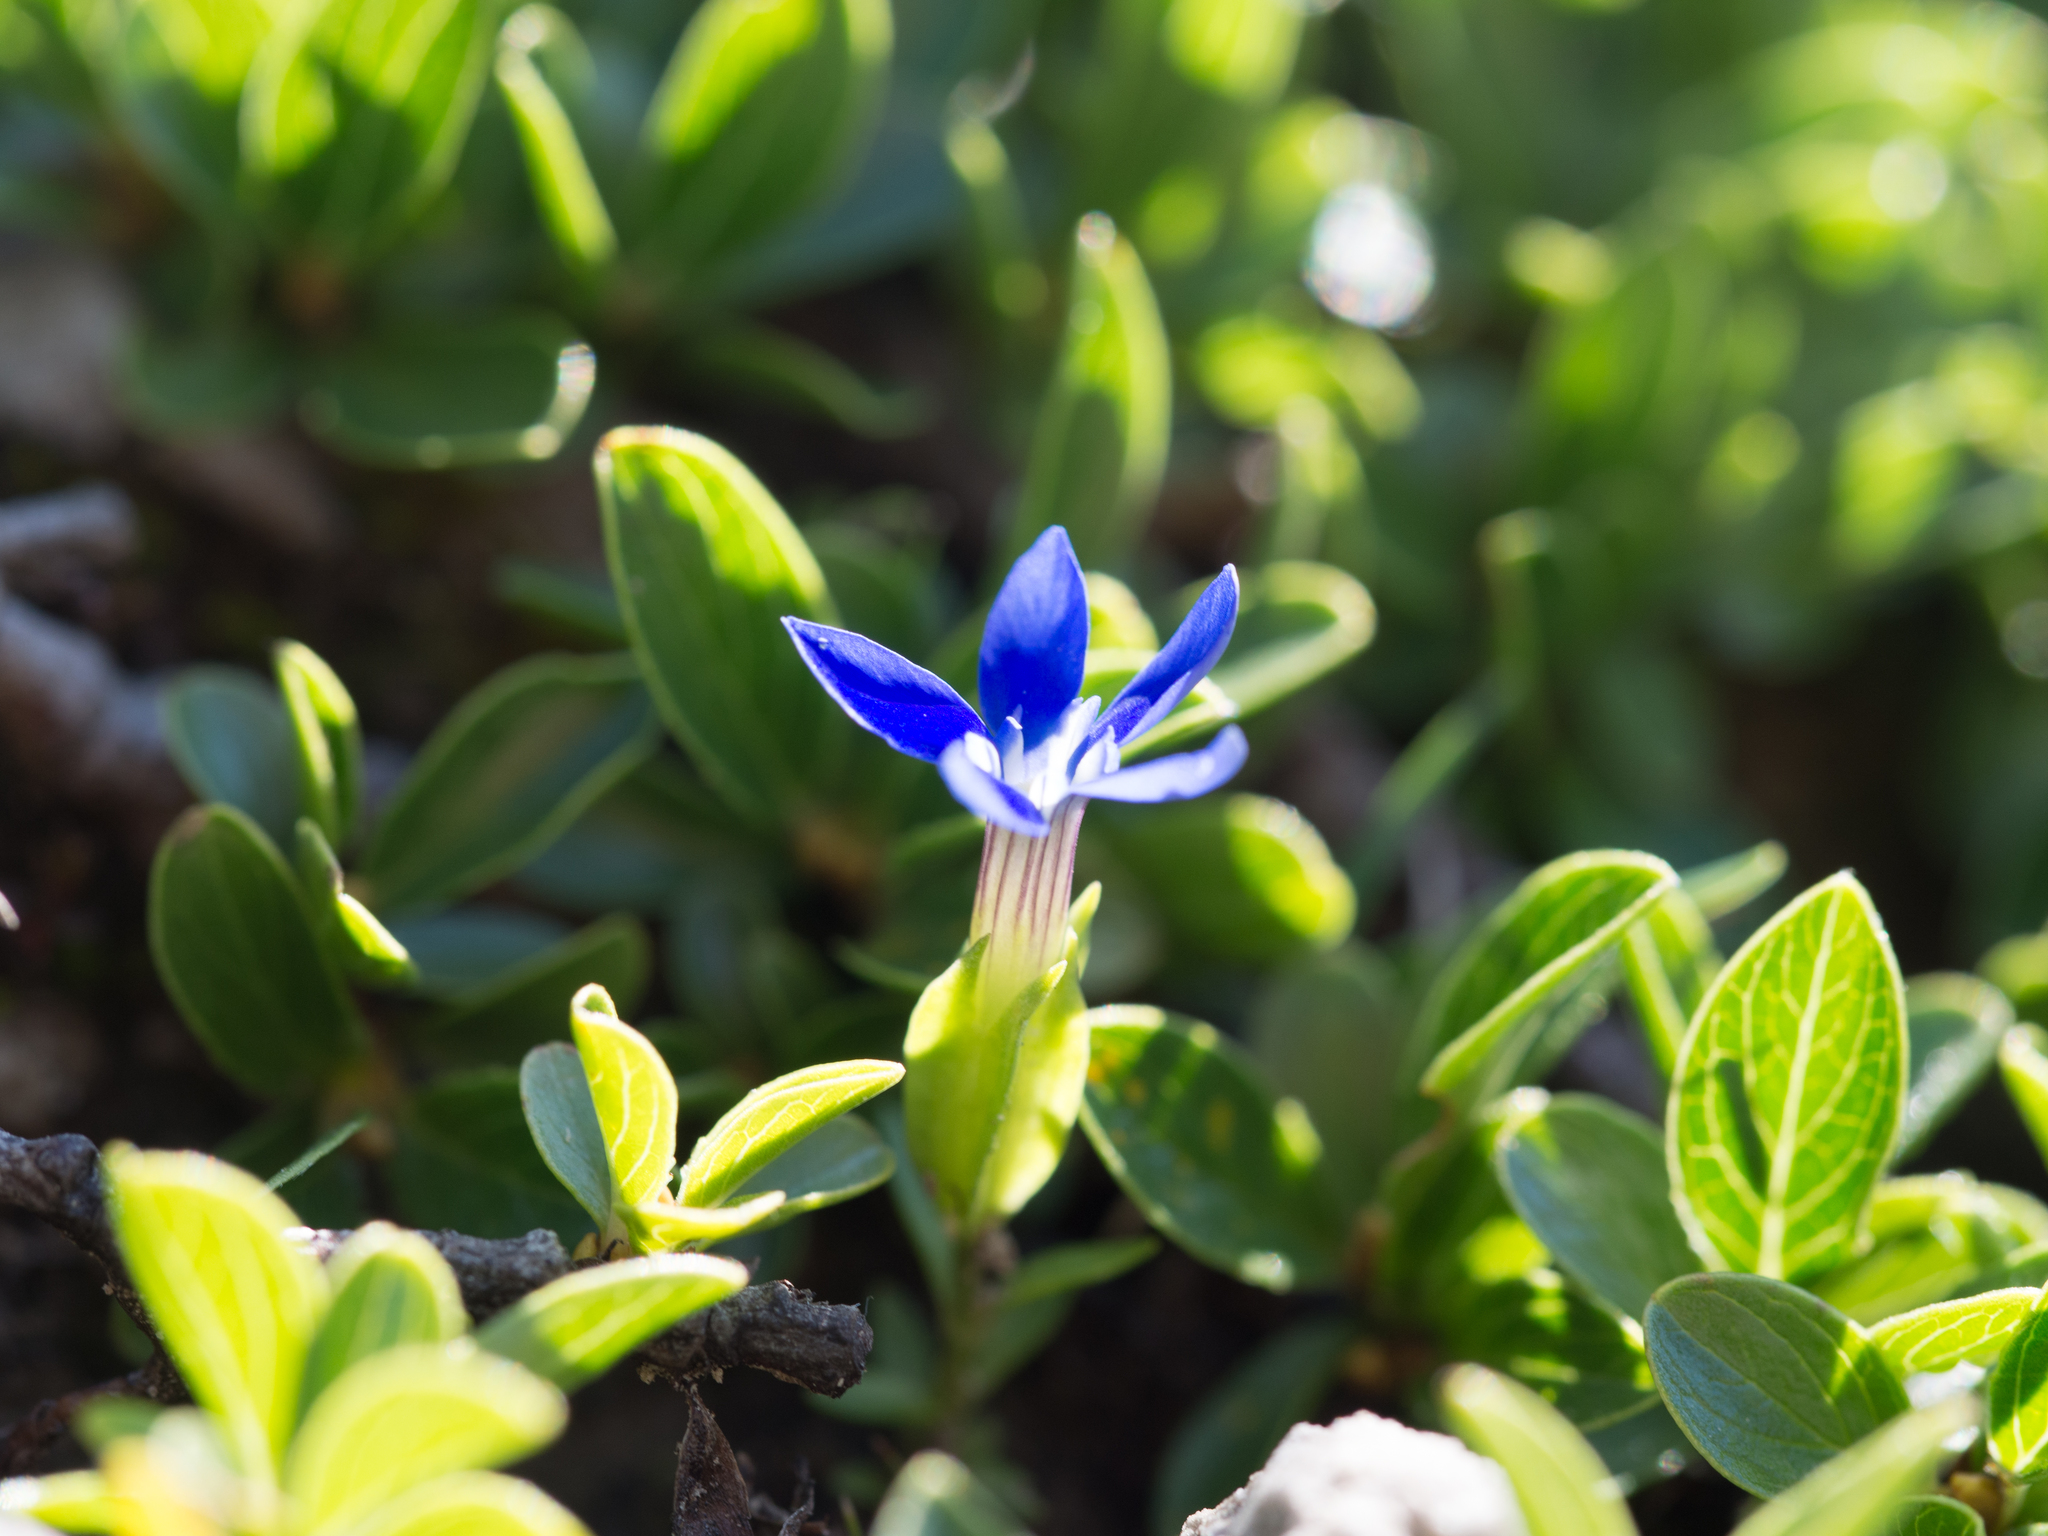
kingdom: Plantae
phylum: Tracheophyta
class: Magnoliopsida
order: Gentianales
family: Gentianaceae
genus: Gentiana
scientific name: Gentiana utriculosa
